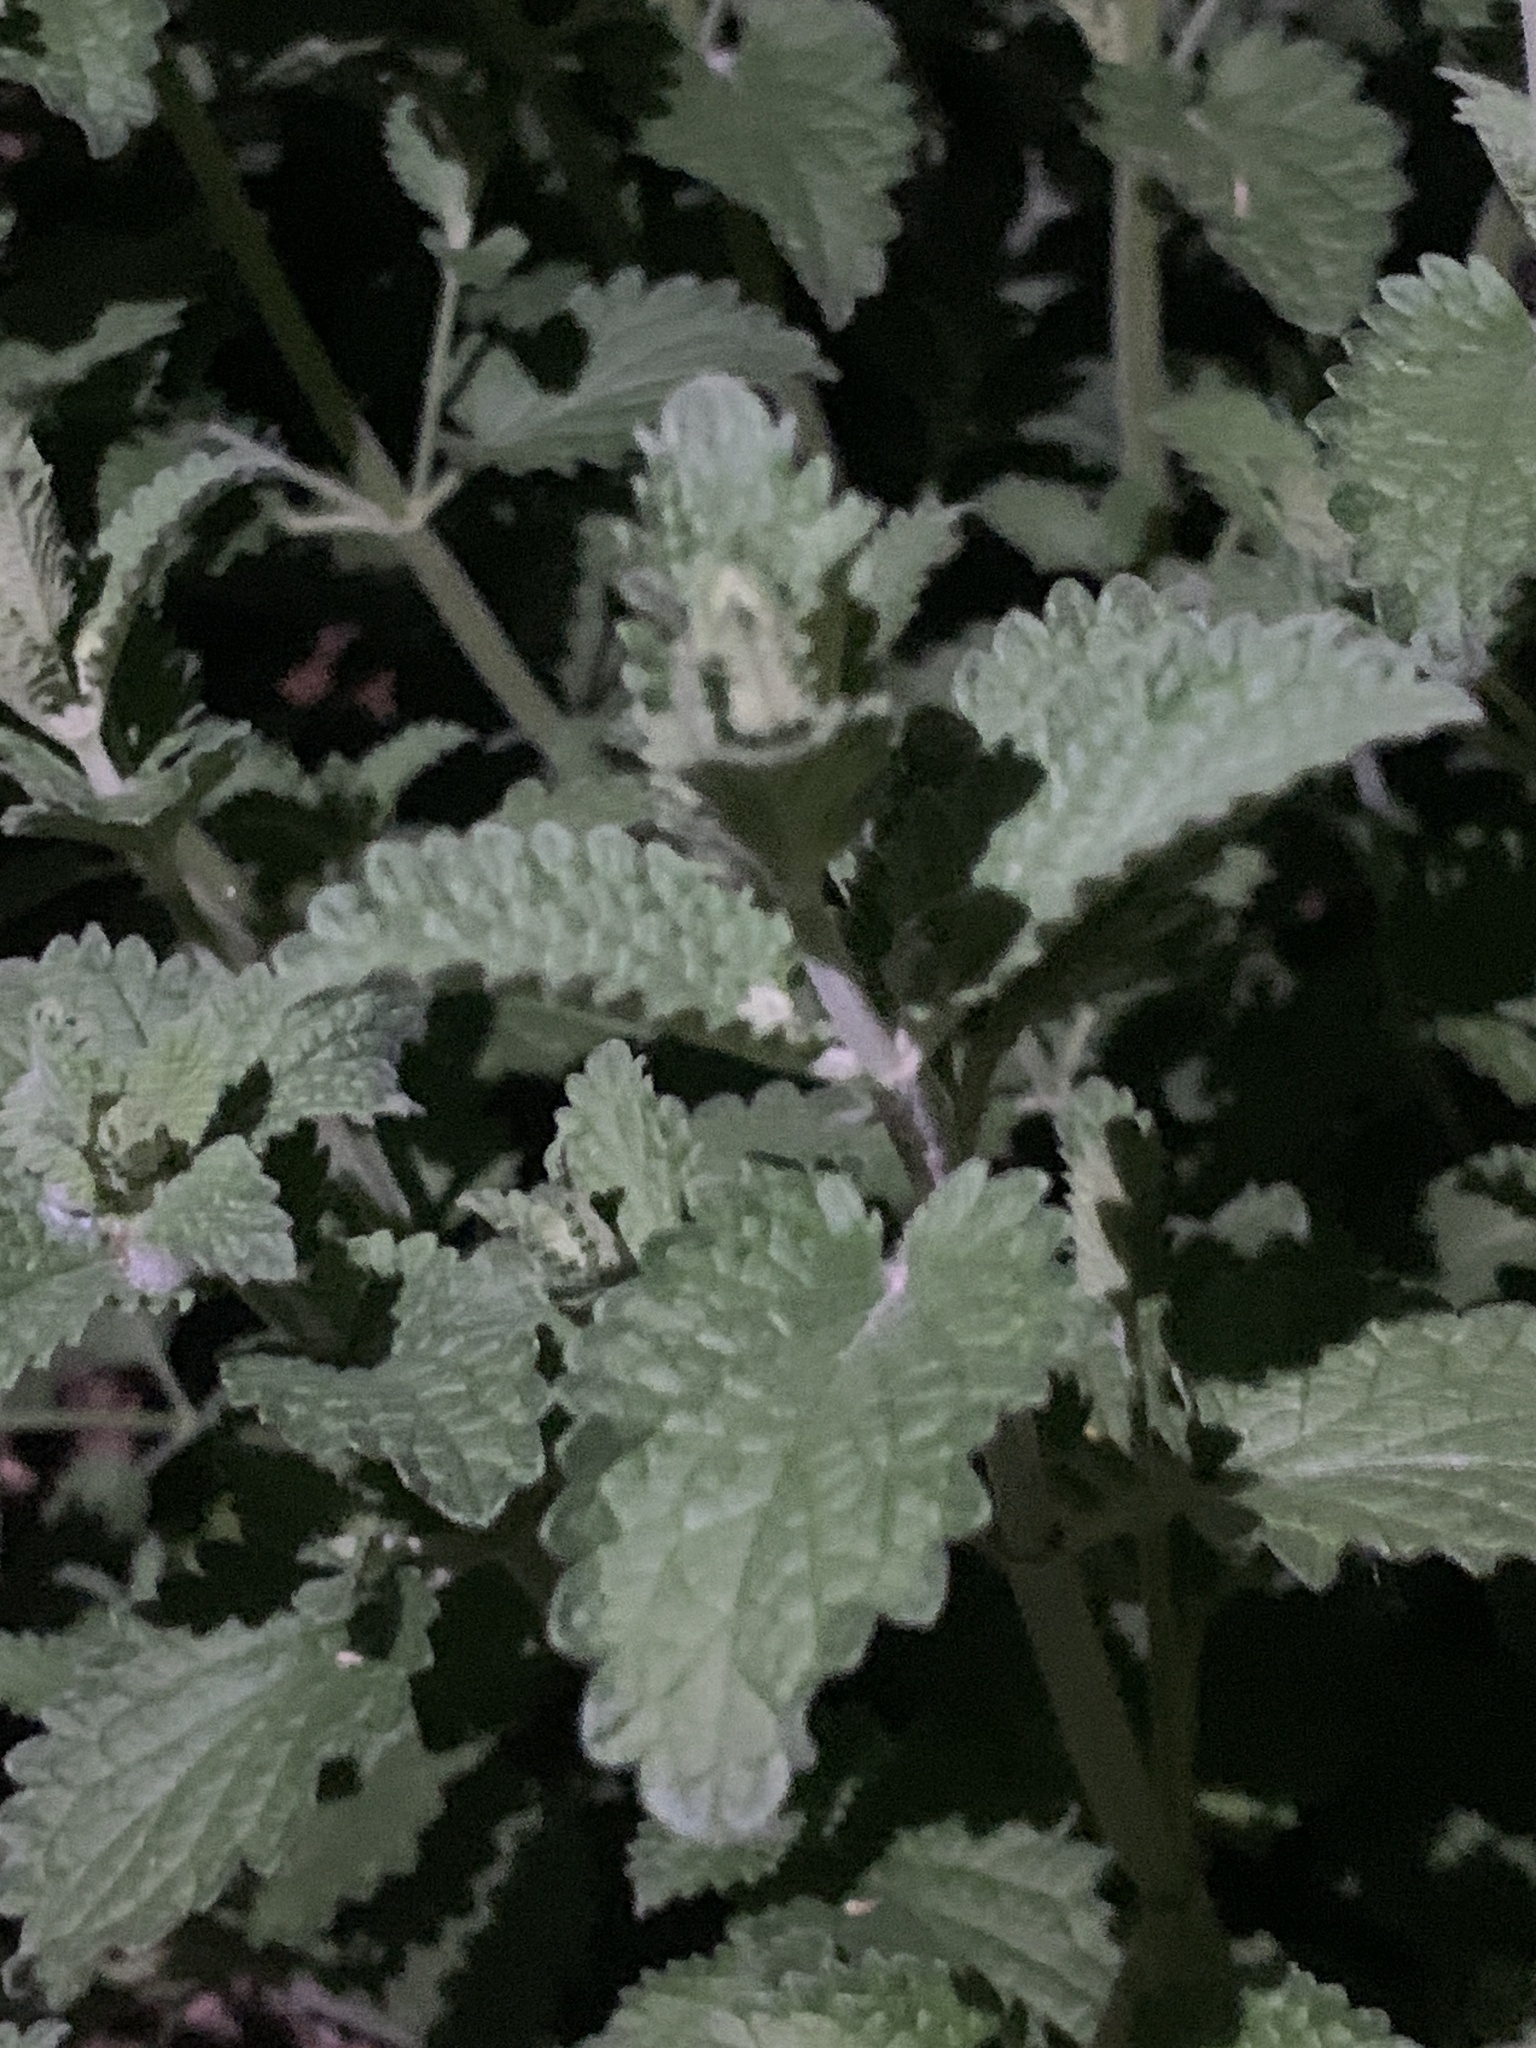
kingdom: Plantae
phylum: Tracheophyta
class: Magnoliopsida
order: Lamiales
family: Lamiaceae
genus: Nepeta
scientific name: Nepeta cataria
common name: Catnip
